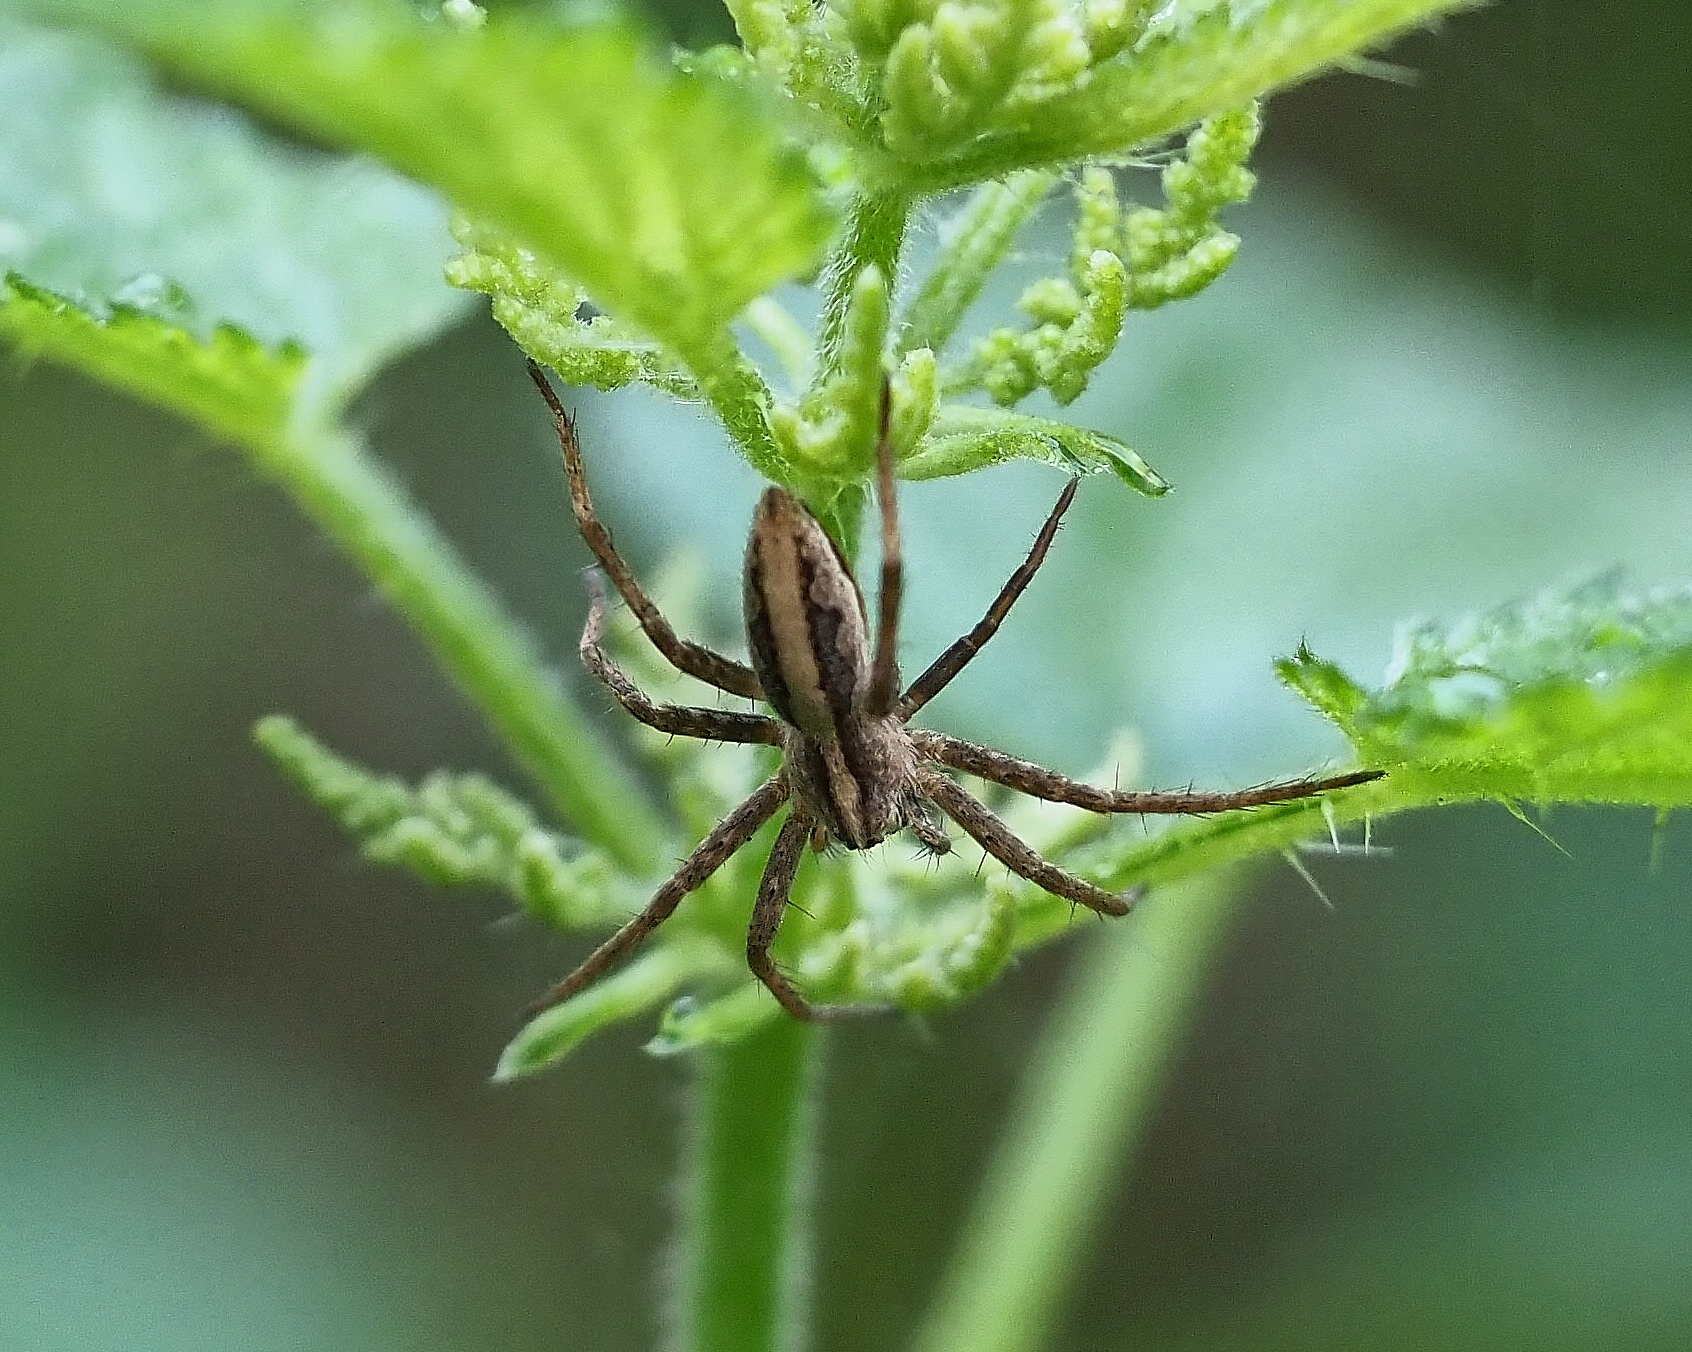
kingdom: Animalia
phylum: Arthropoda
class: Arachnida
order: Araneae
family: Pisauridae
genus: Pisaura
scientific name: Pisaura mirabilis
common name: Tent spider
